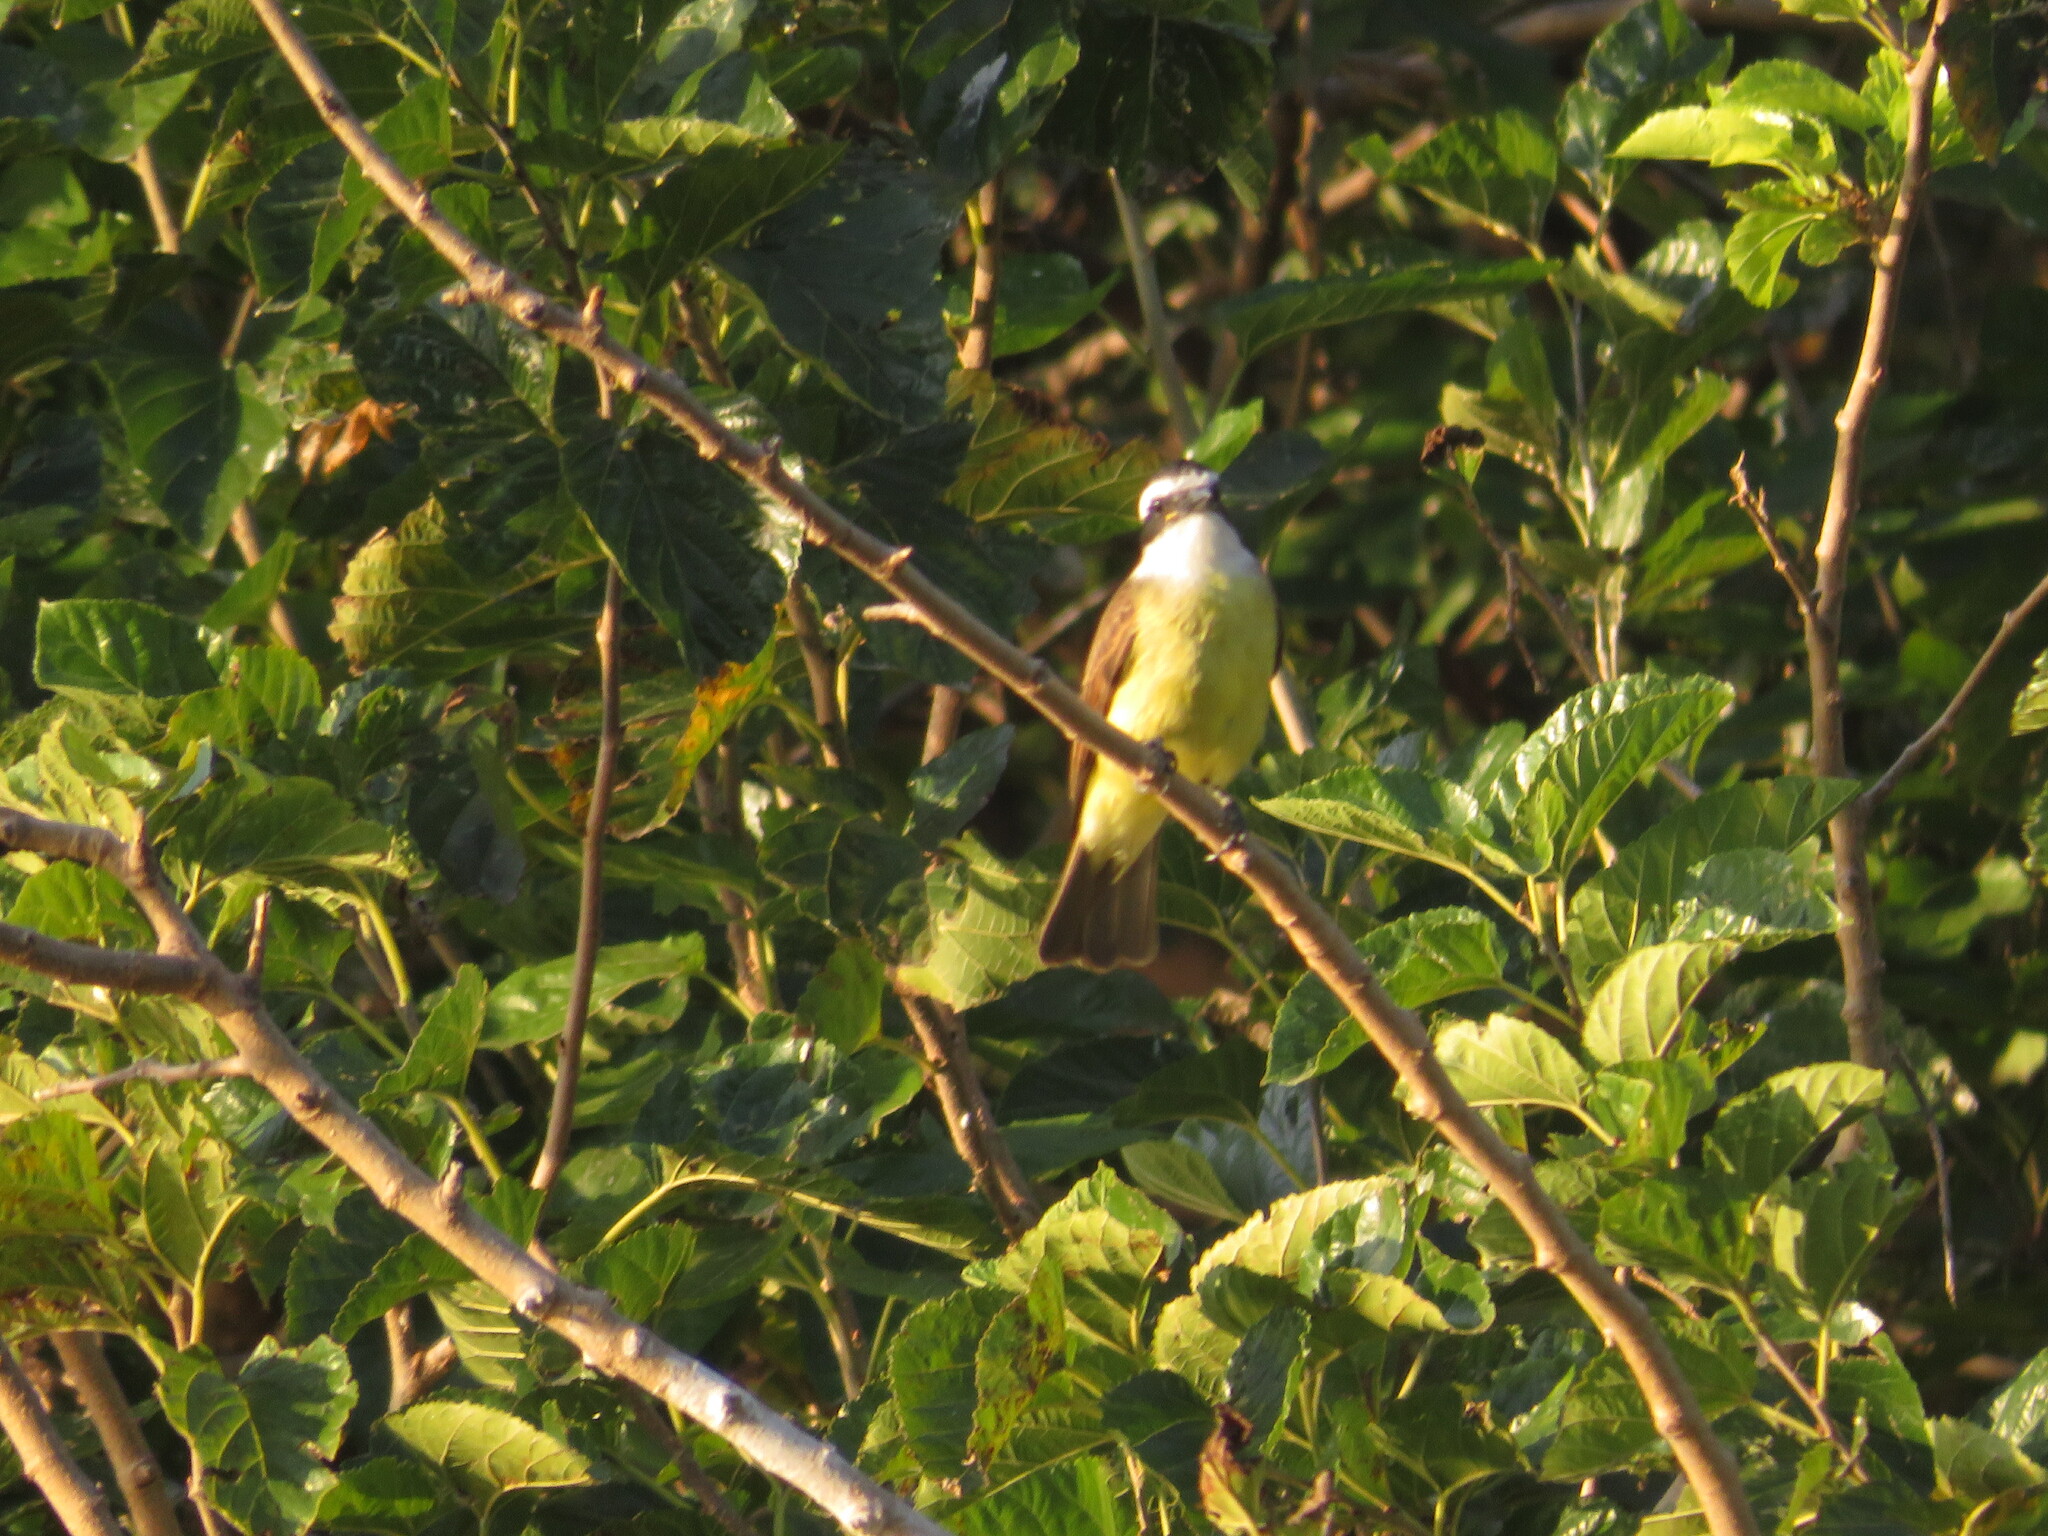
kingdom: Animalia
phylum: Chordata
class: Aves
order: Passeriformes
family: Tyrannidae
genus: Pitangus
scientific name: Pitangus sulphuratus
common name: Great kiskadee
